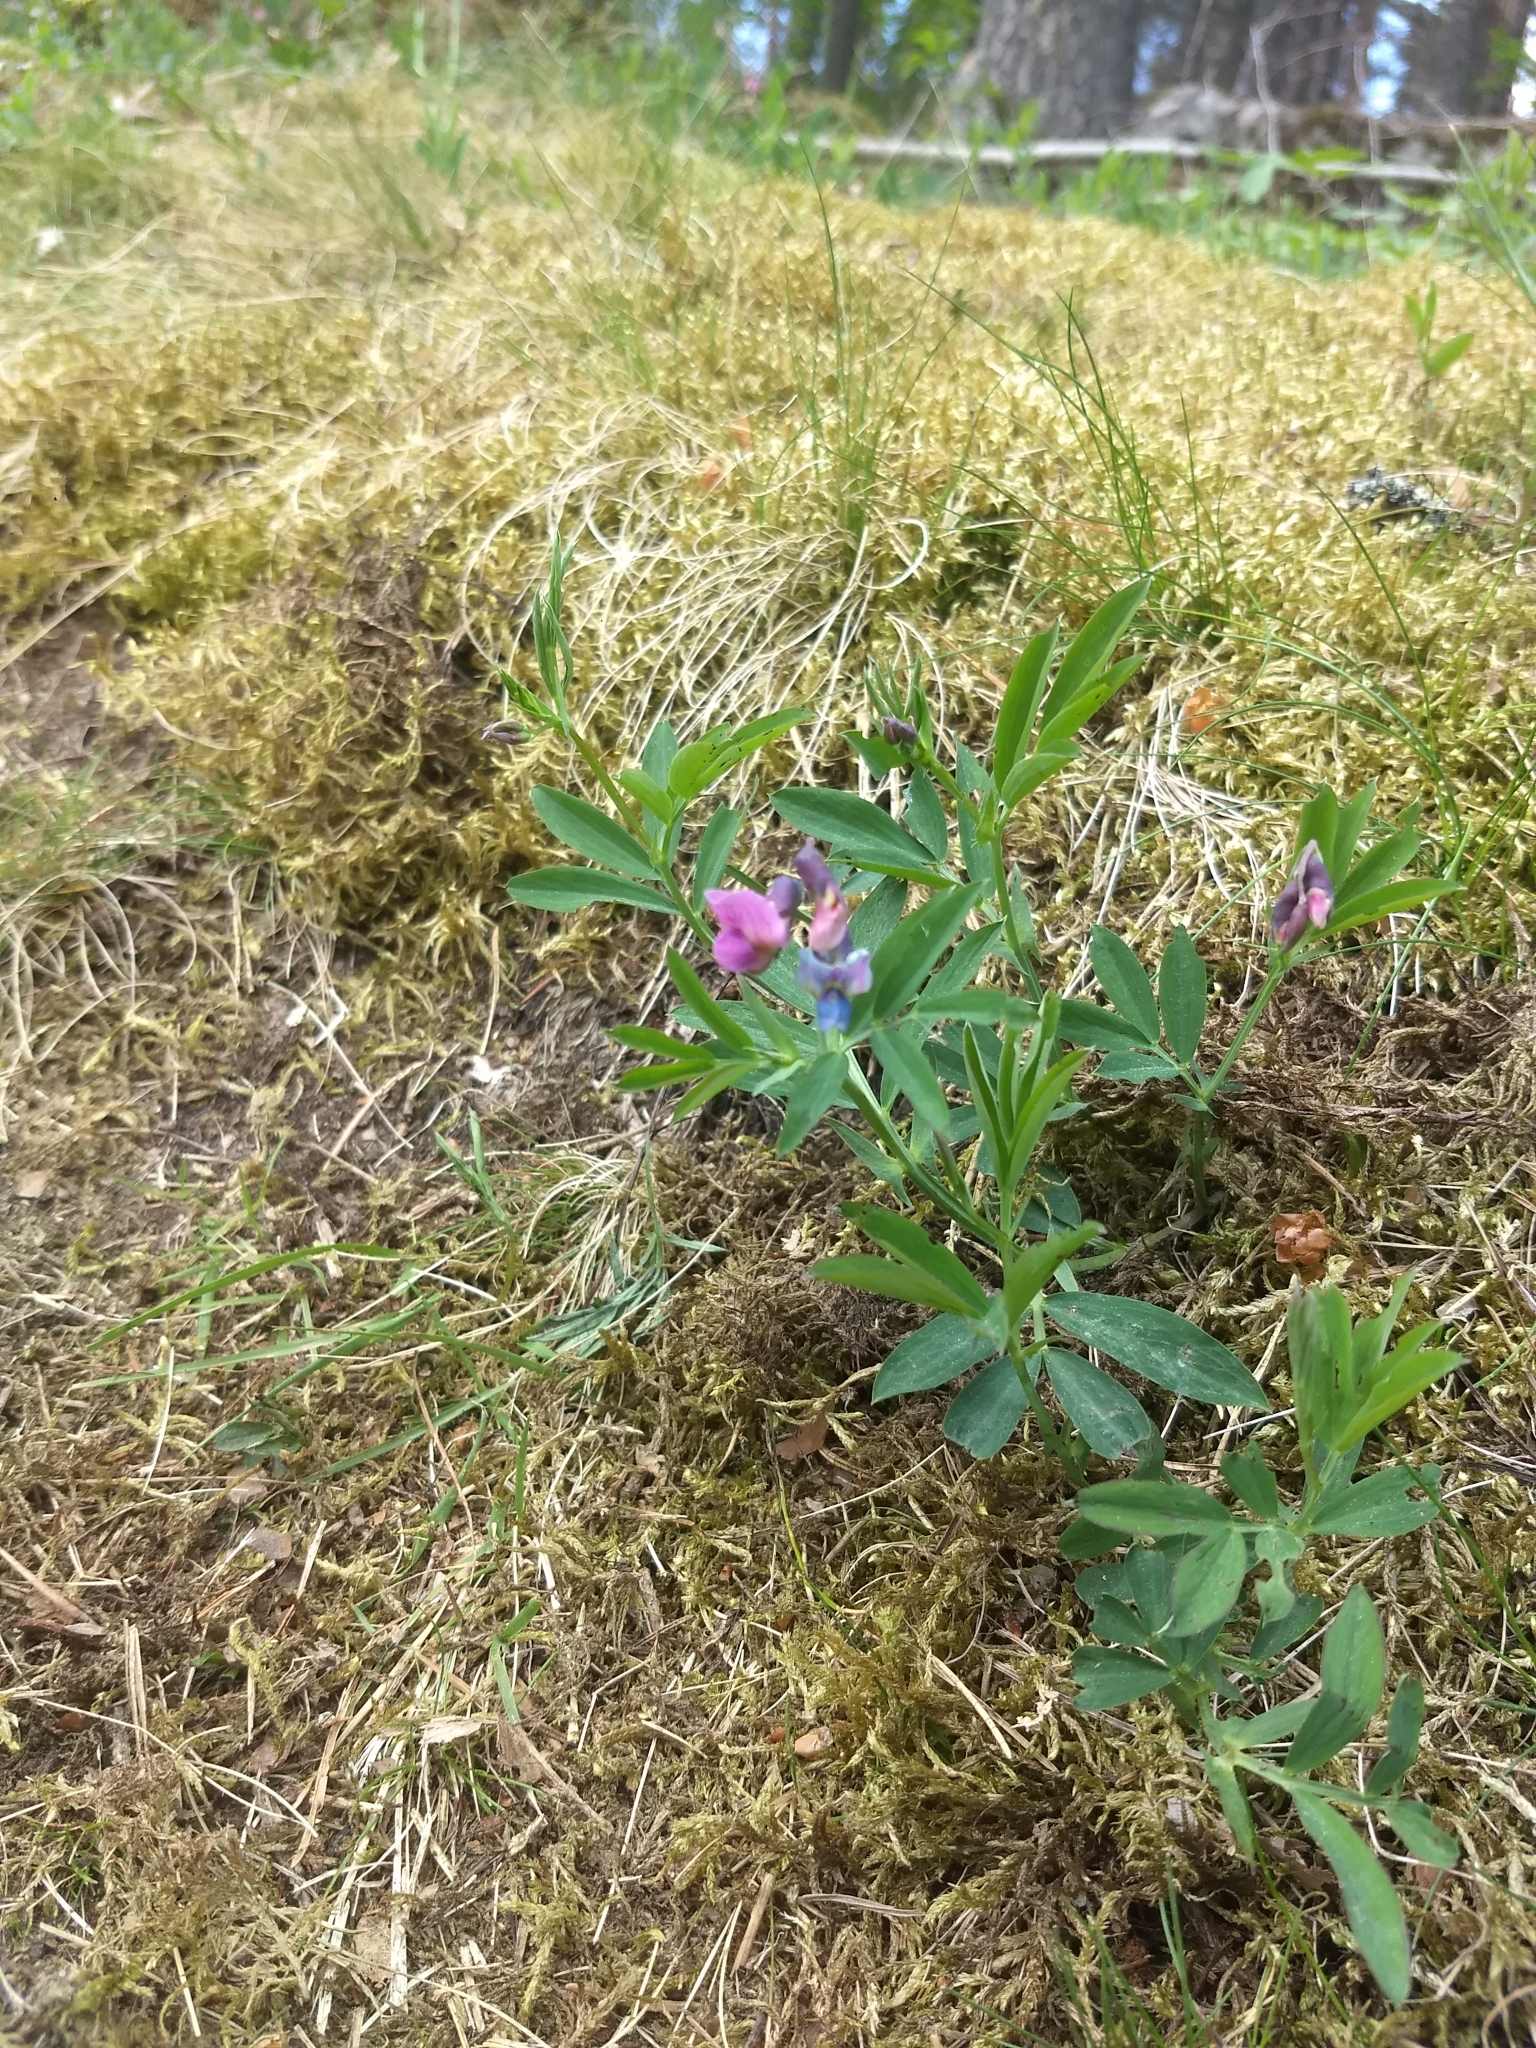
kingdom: Plantae
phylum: Tracheophyta
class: Magnoliopsida
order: Fabales
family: Fabaceae
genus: Lathyrus
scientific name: Lathyrus linifolius
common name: Bitter-vetch
